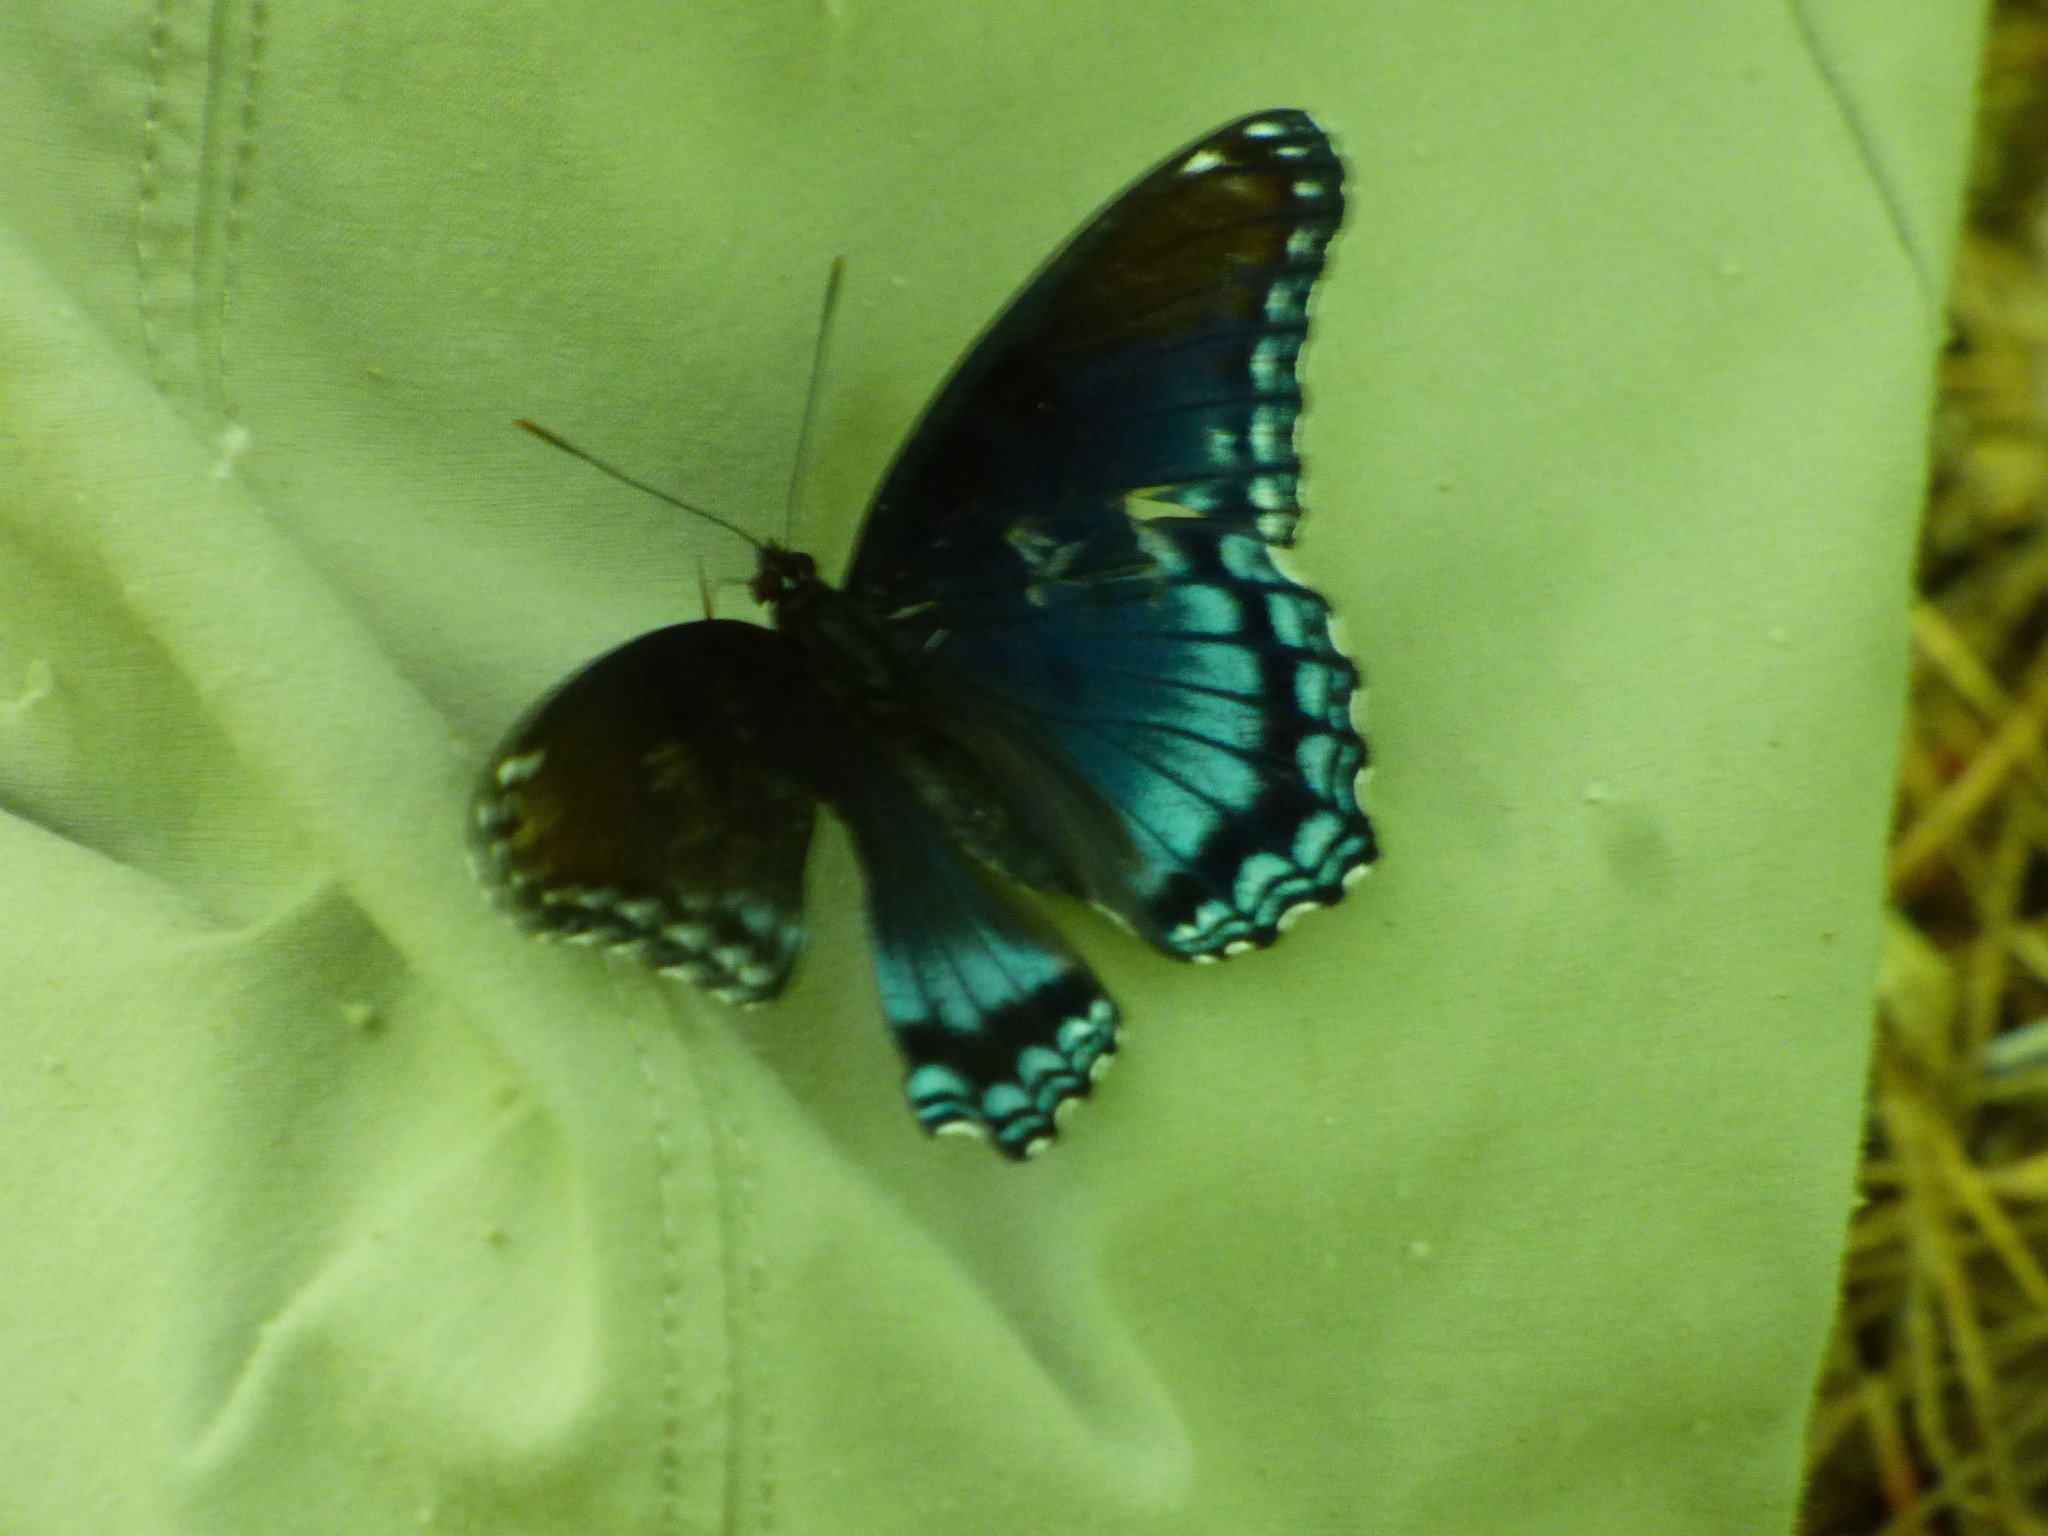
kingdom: Animalia
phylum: Arthropoda
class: Insecta
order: Lepidoptera
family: Nymphalidae
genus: Limenitis
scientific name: Limenitis arthemis
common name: Red-spotted admiral
